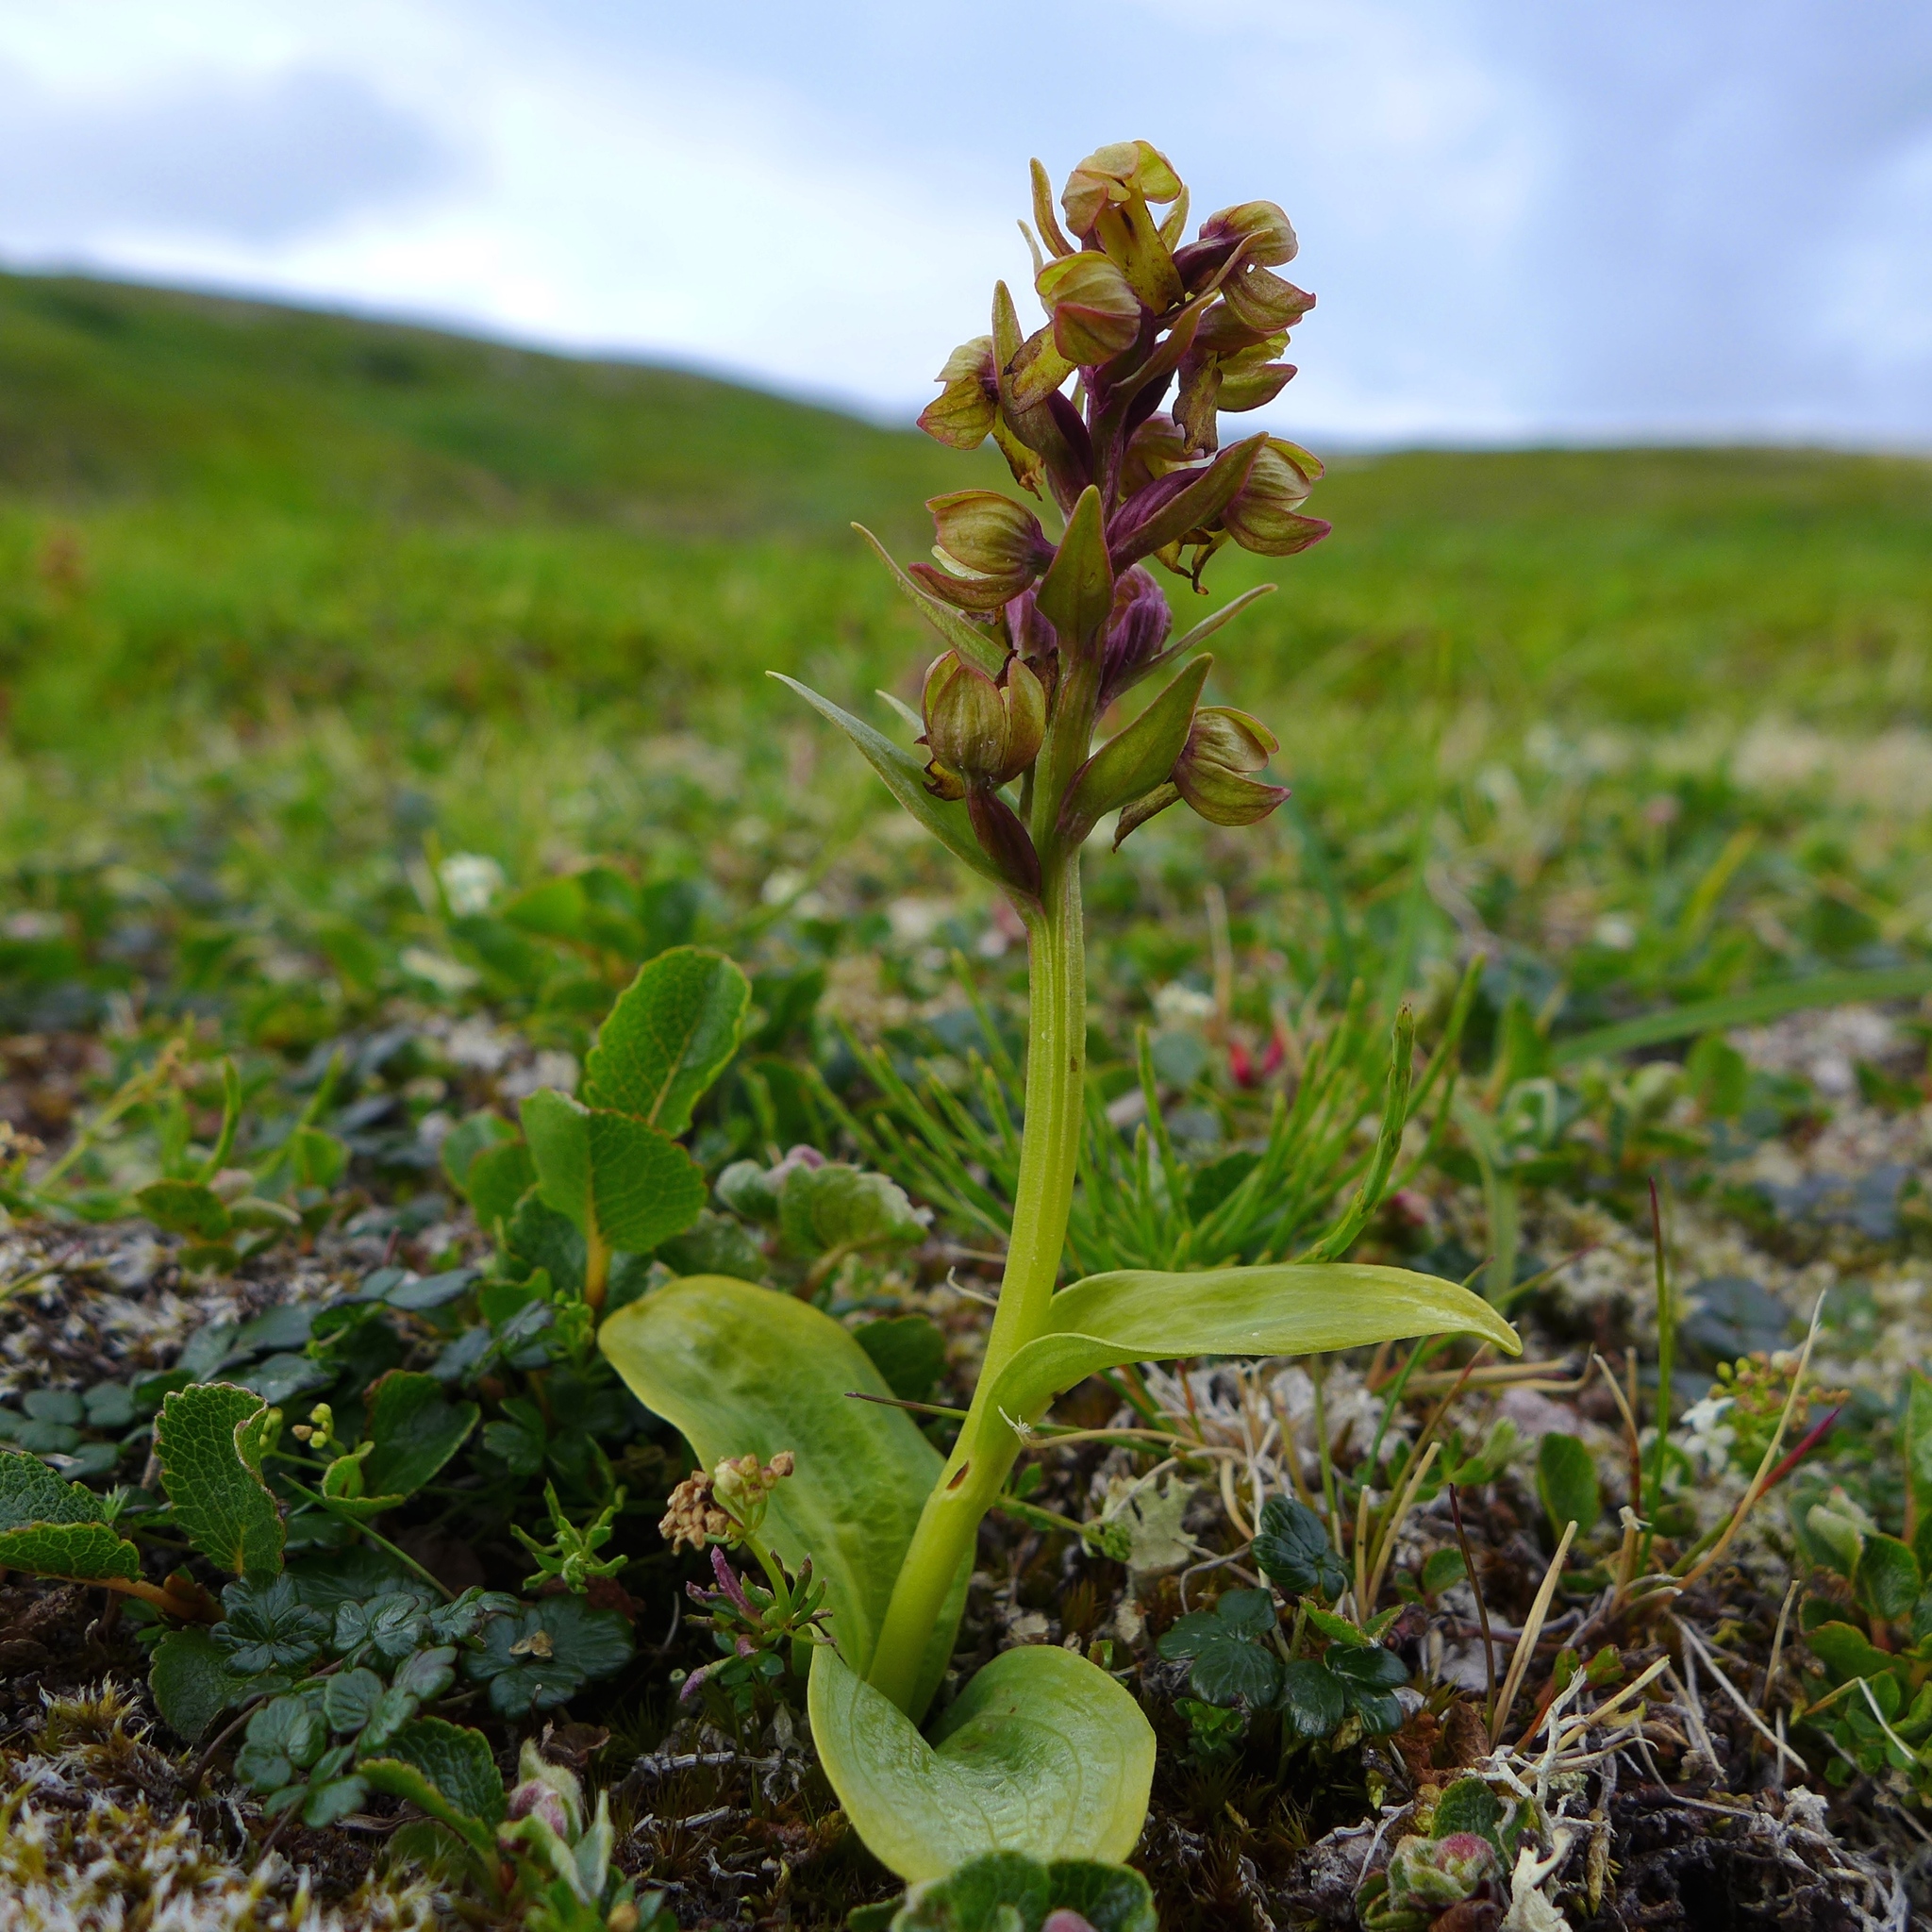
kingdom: Plantae
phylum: Tracheophyta
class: Liliopsida
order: Asparagales
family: Orchidaceae
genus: Dactylorhiza
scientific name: Dactylorhiza viridis
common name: Longbract frog orchid
